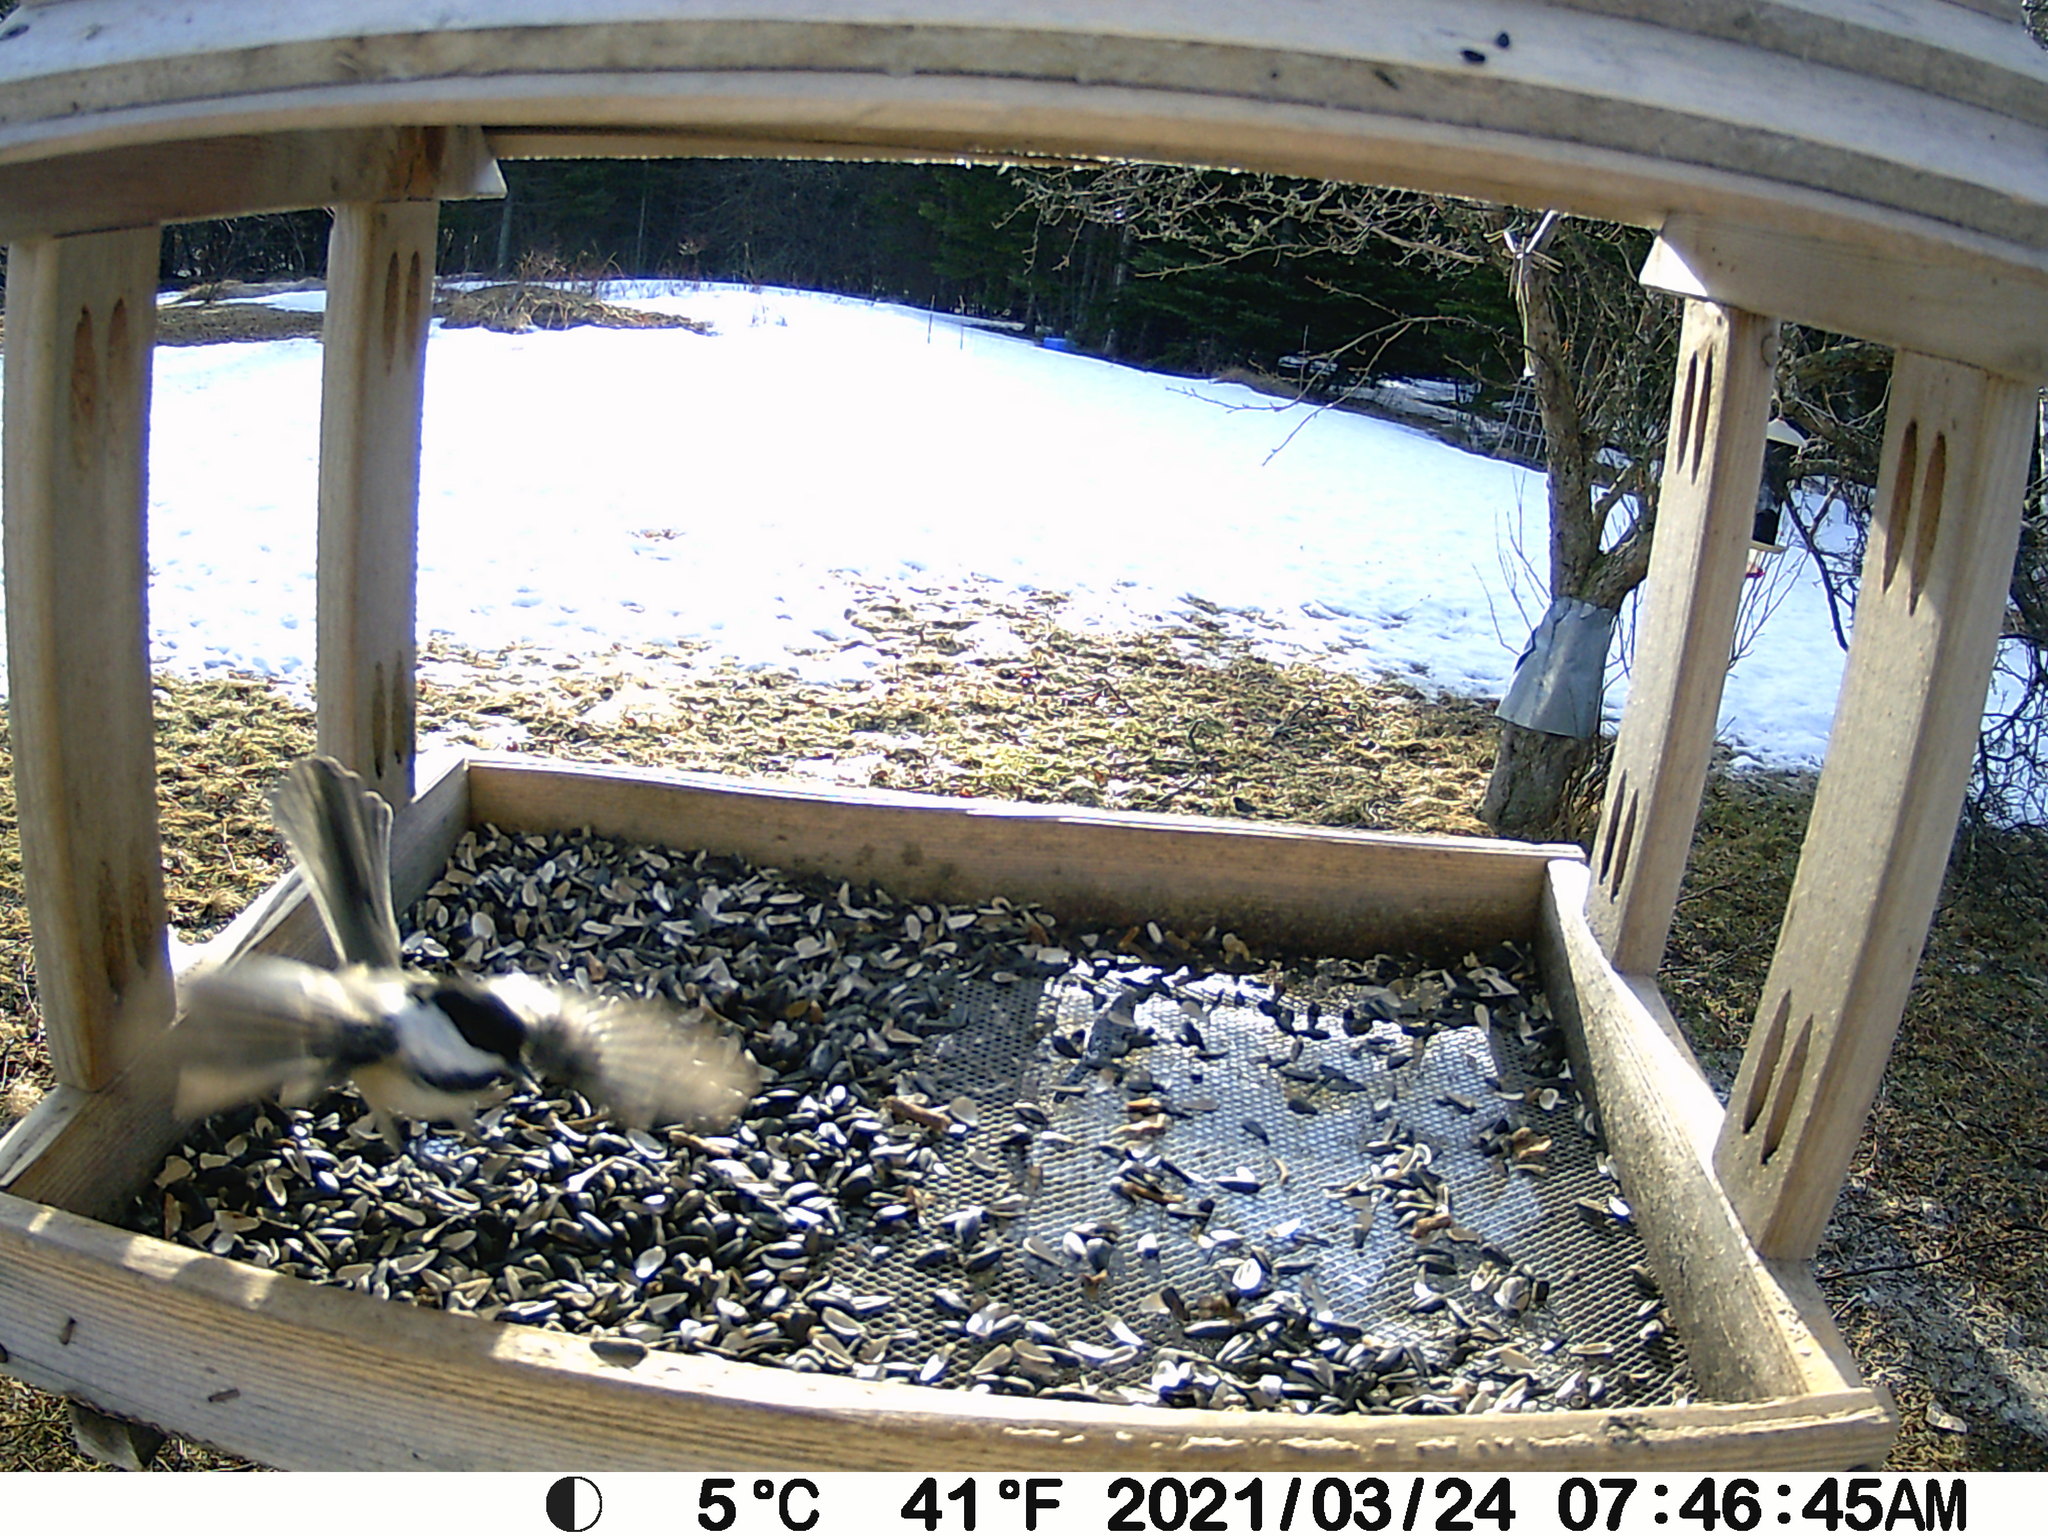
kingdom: Animalia
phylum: Chordata
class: Aves
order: Passeriformes
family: Paridae
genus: Poecile
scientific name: Poecile atricapillus
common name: Black-capped chickadee
